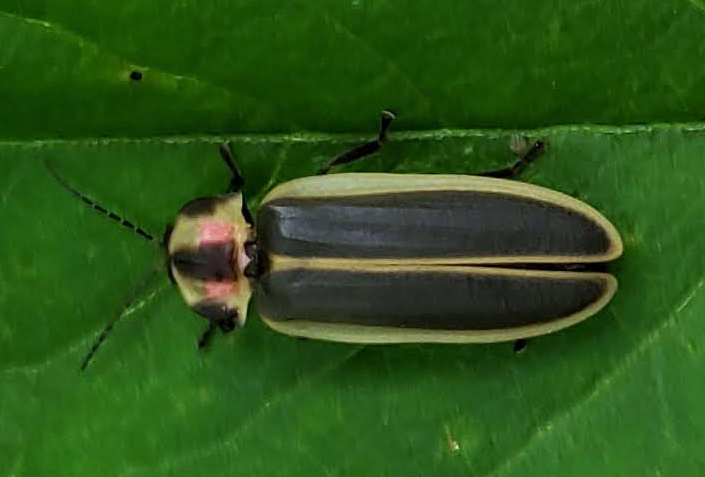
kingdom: Animalia
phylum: Arthropoda
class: Insecta
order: Coleoptera
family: Lampyridae
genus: Pyractomena
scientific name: Pyractomena angulata
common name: Candle firefly
